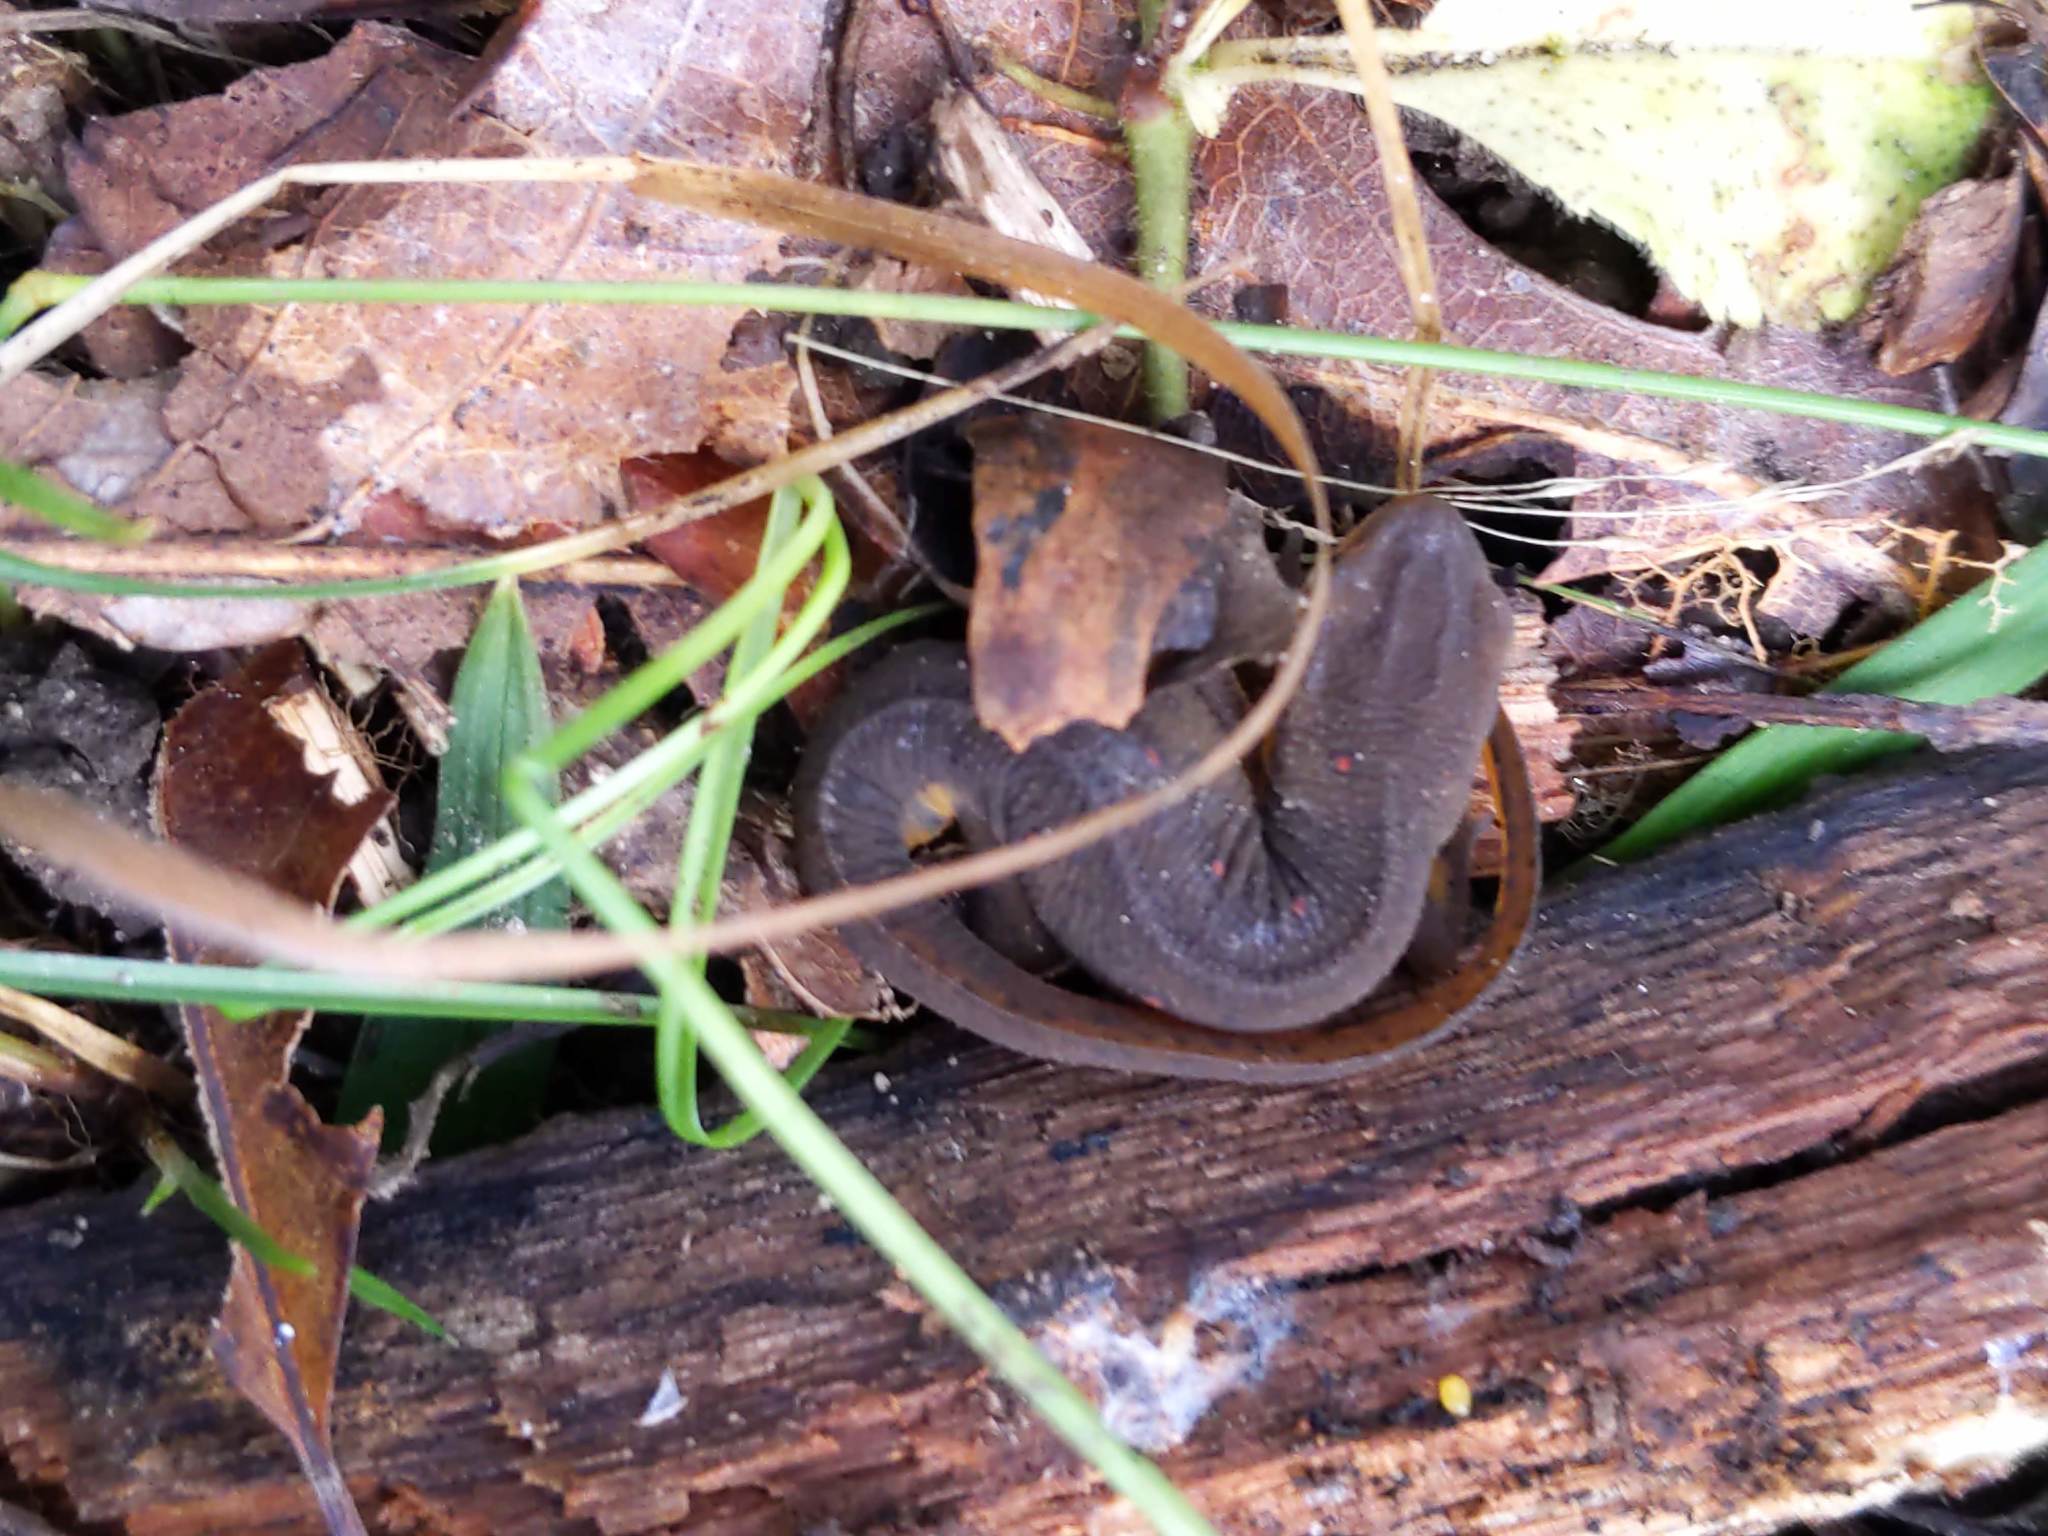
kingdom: Animalia
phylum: Chordata
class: Amphibia
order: Caudata
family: Salamandridae
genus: Notophthalmus
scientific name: Notophthalmus viridescens
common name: Eastern newt
